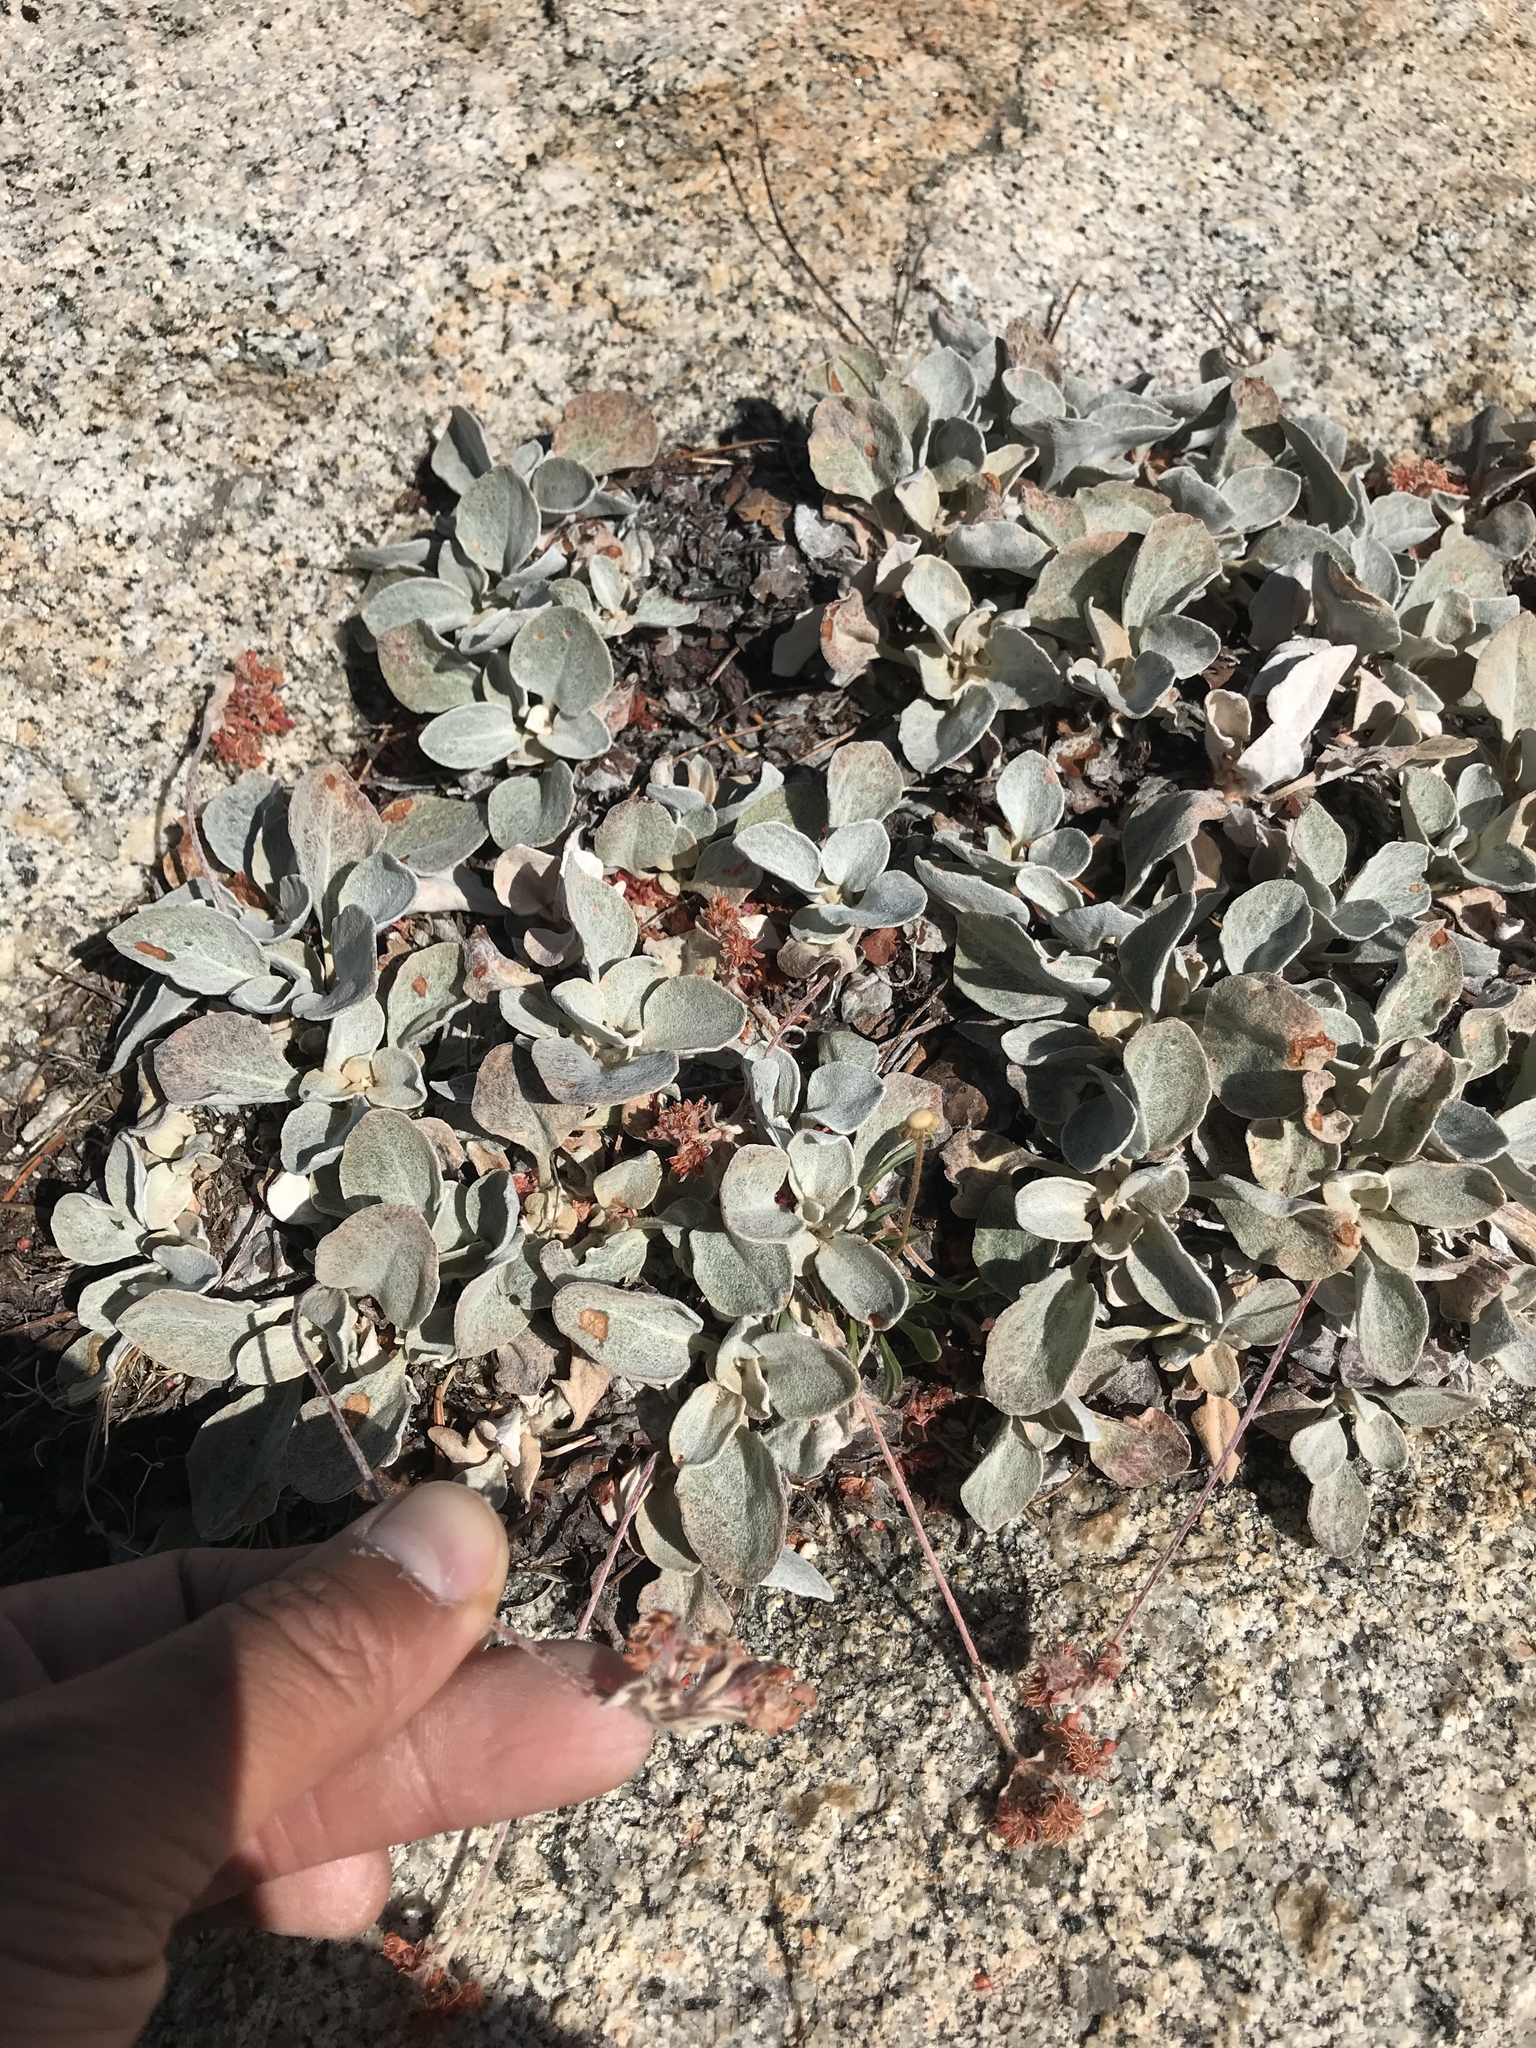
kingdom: Plantae
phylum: Tracheophyta
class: Magnoliopsida
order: Caryophyllales
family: Polygonaceae
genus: Eriogonum
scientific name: Eriogonum lobbii
